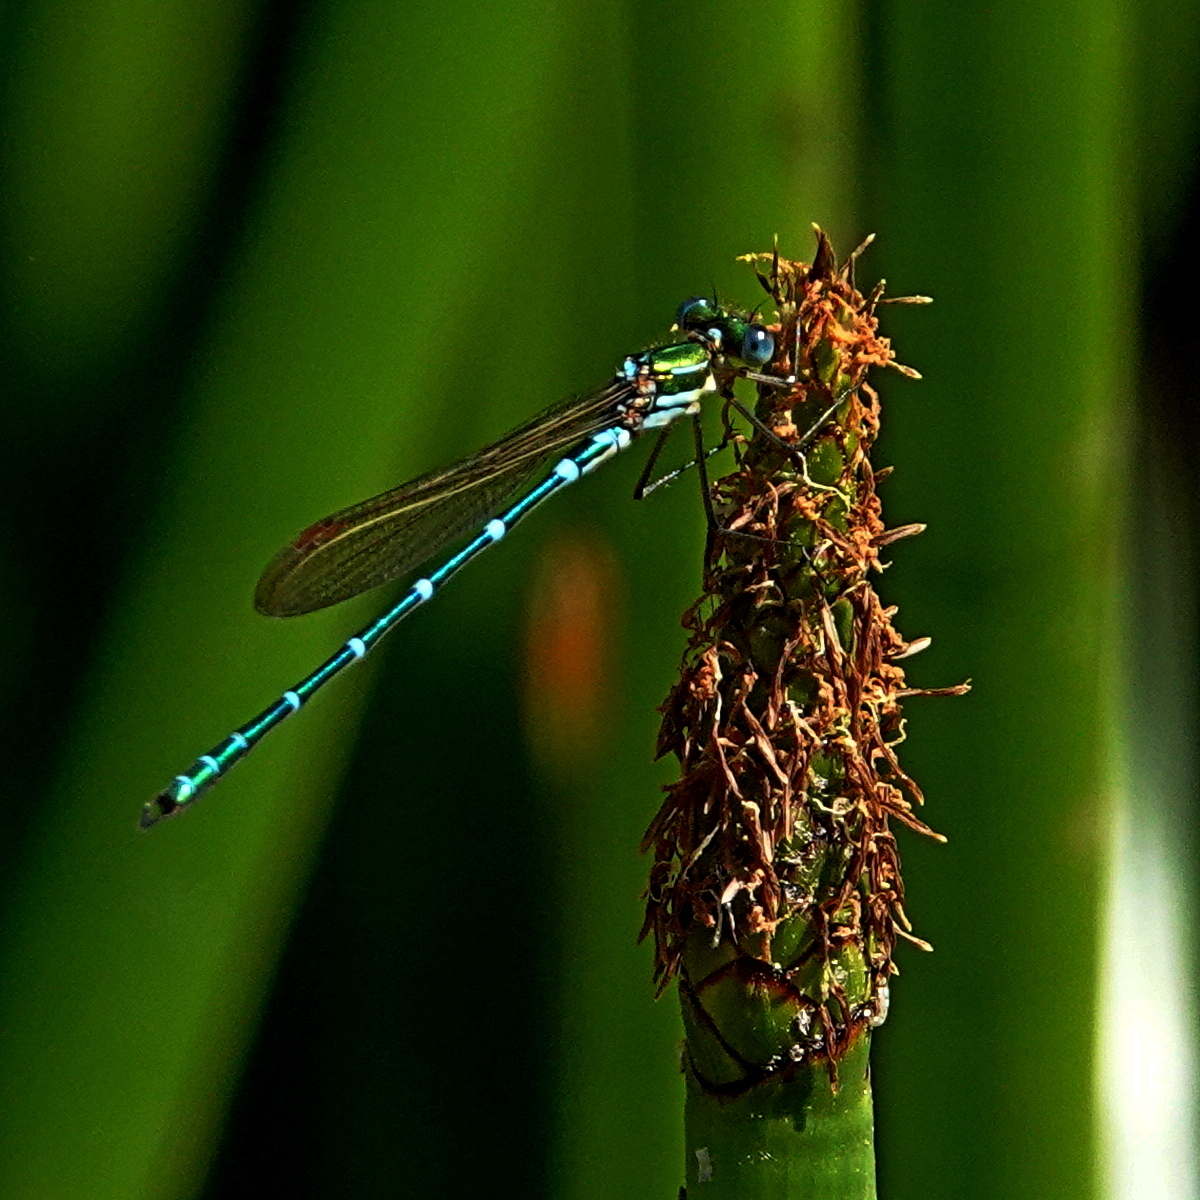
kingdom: Animalia
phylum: Arthropoda
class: Insecta
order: Odonata
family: Lestidae
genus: Austrolestes
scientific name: Austrolestes cingulatus
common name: Metallic ringtail
